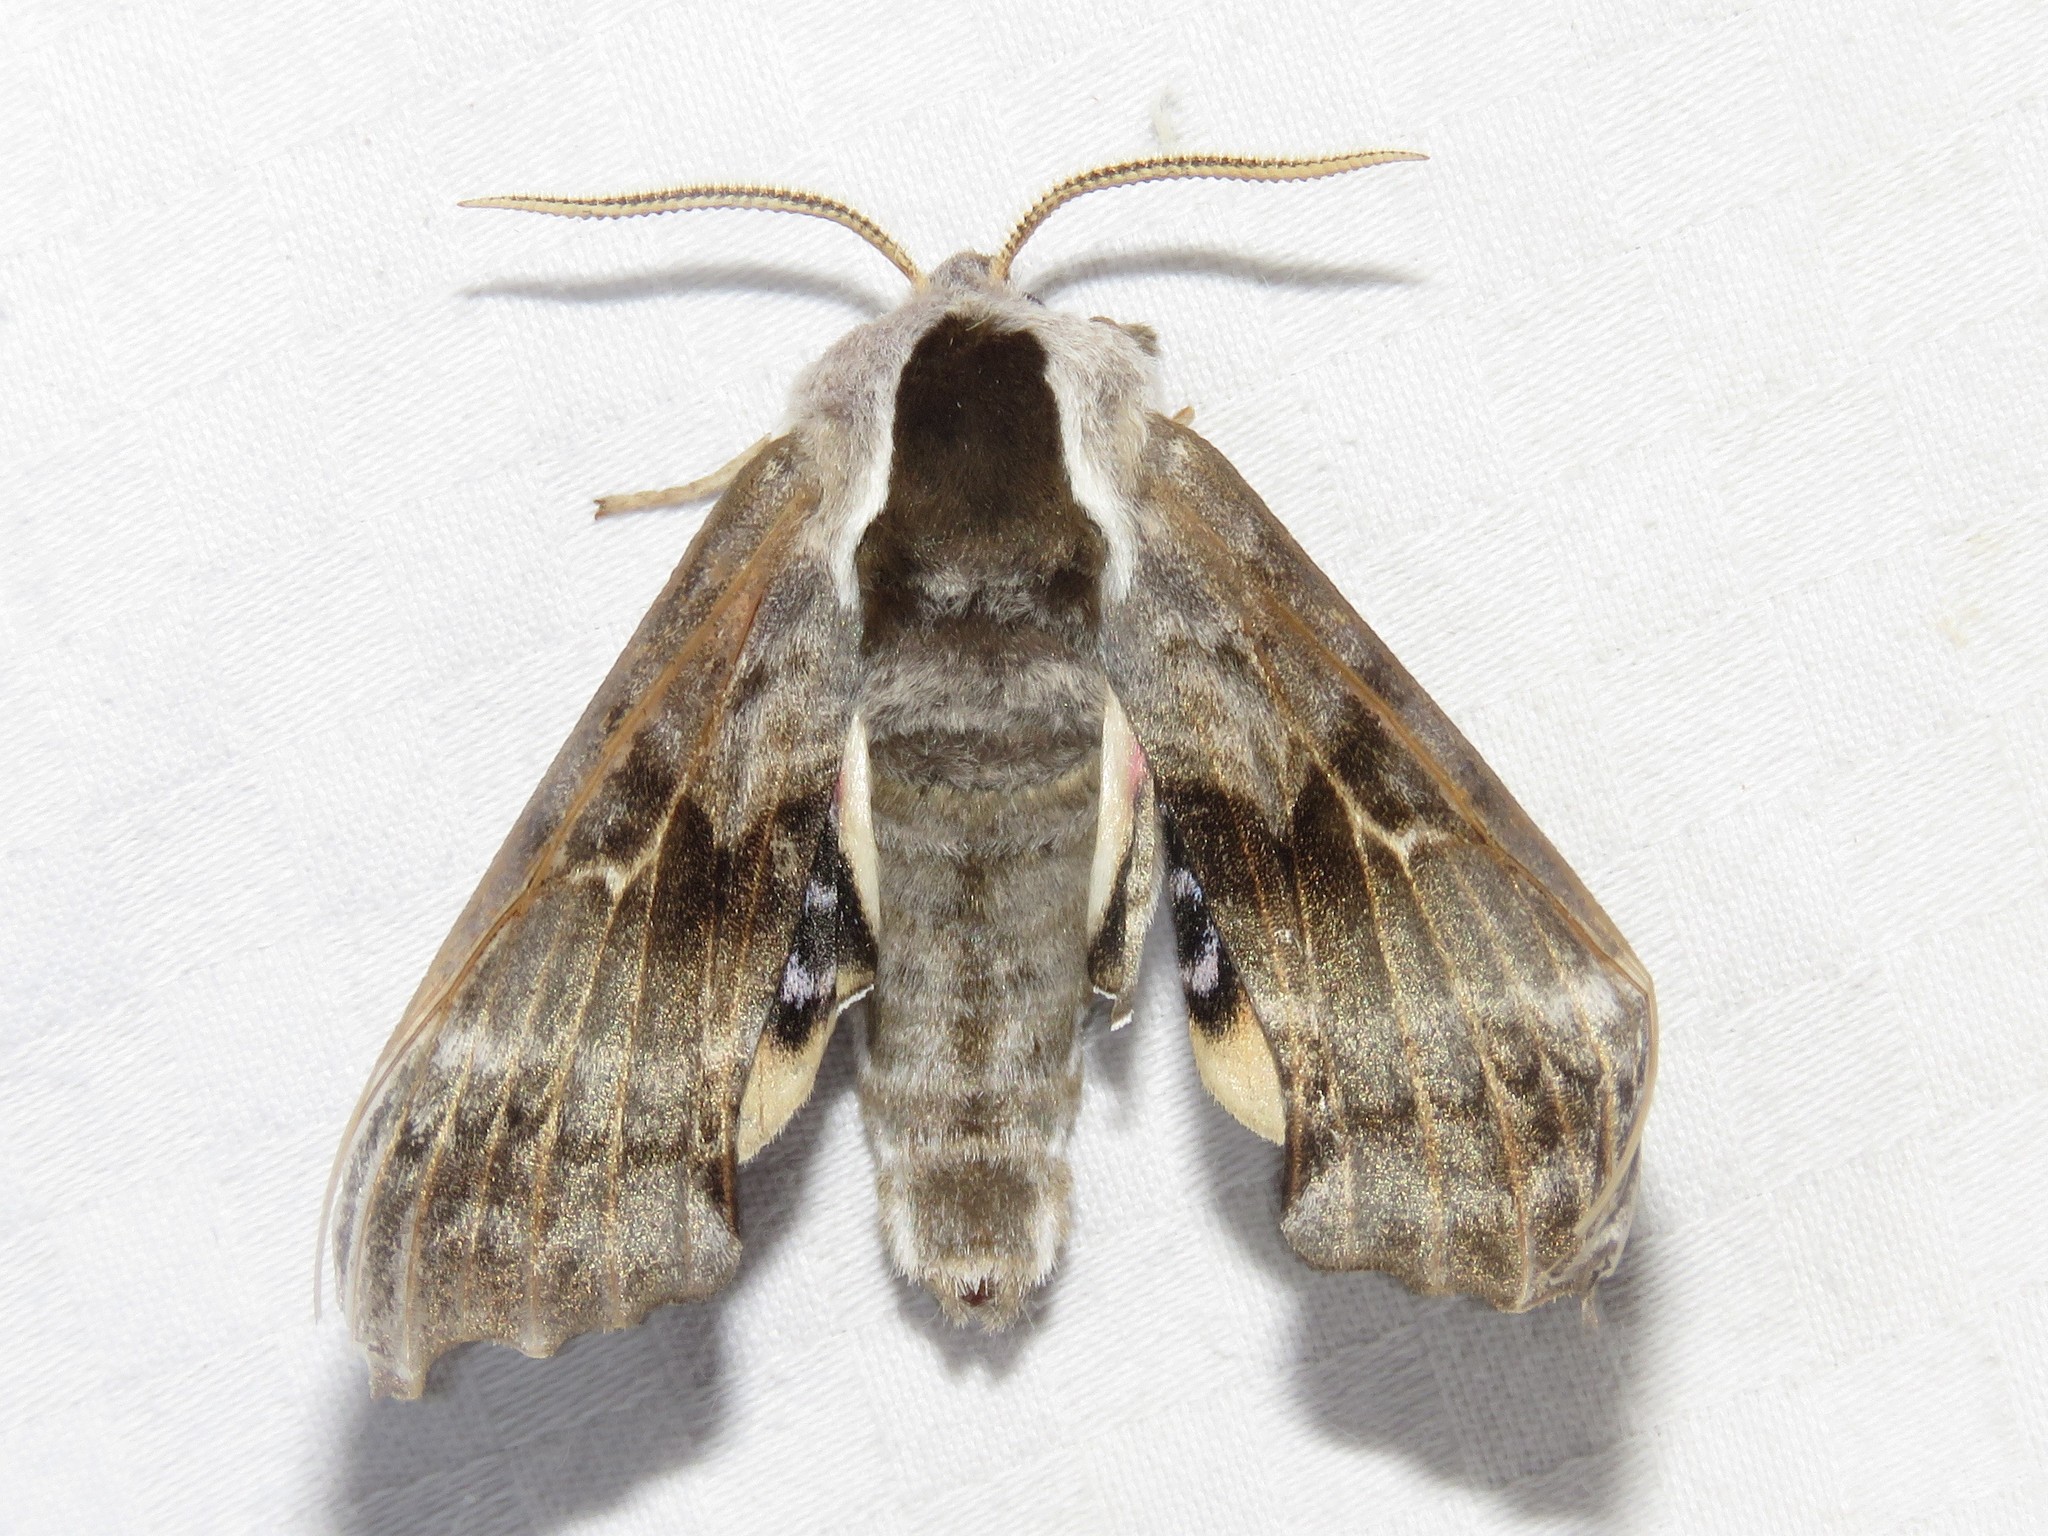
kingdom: Animalia
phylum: Arthropoda
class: Insecta
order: Lepidoptera
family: Sphingidae
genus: Smerinthus
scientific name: Smerinthus cerisyi
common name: Cerisy's sphinx moth
